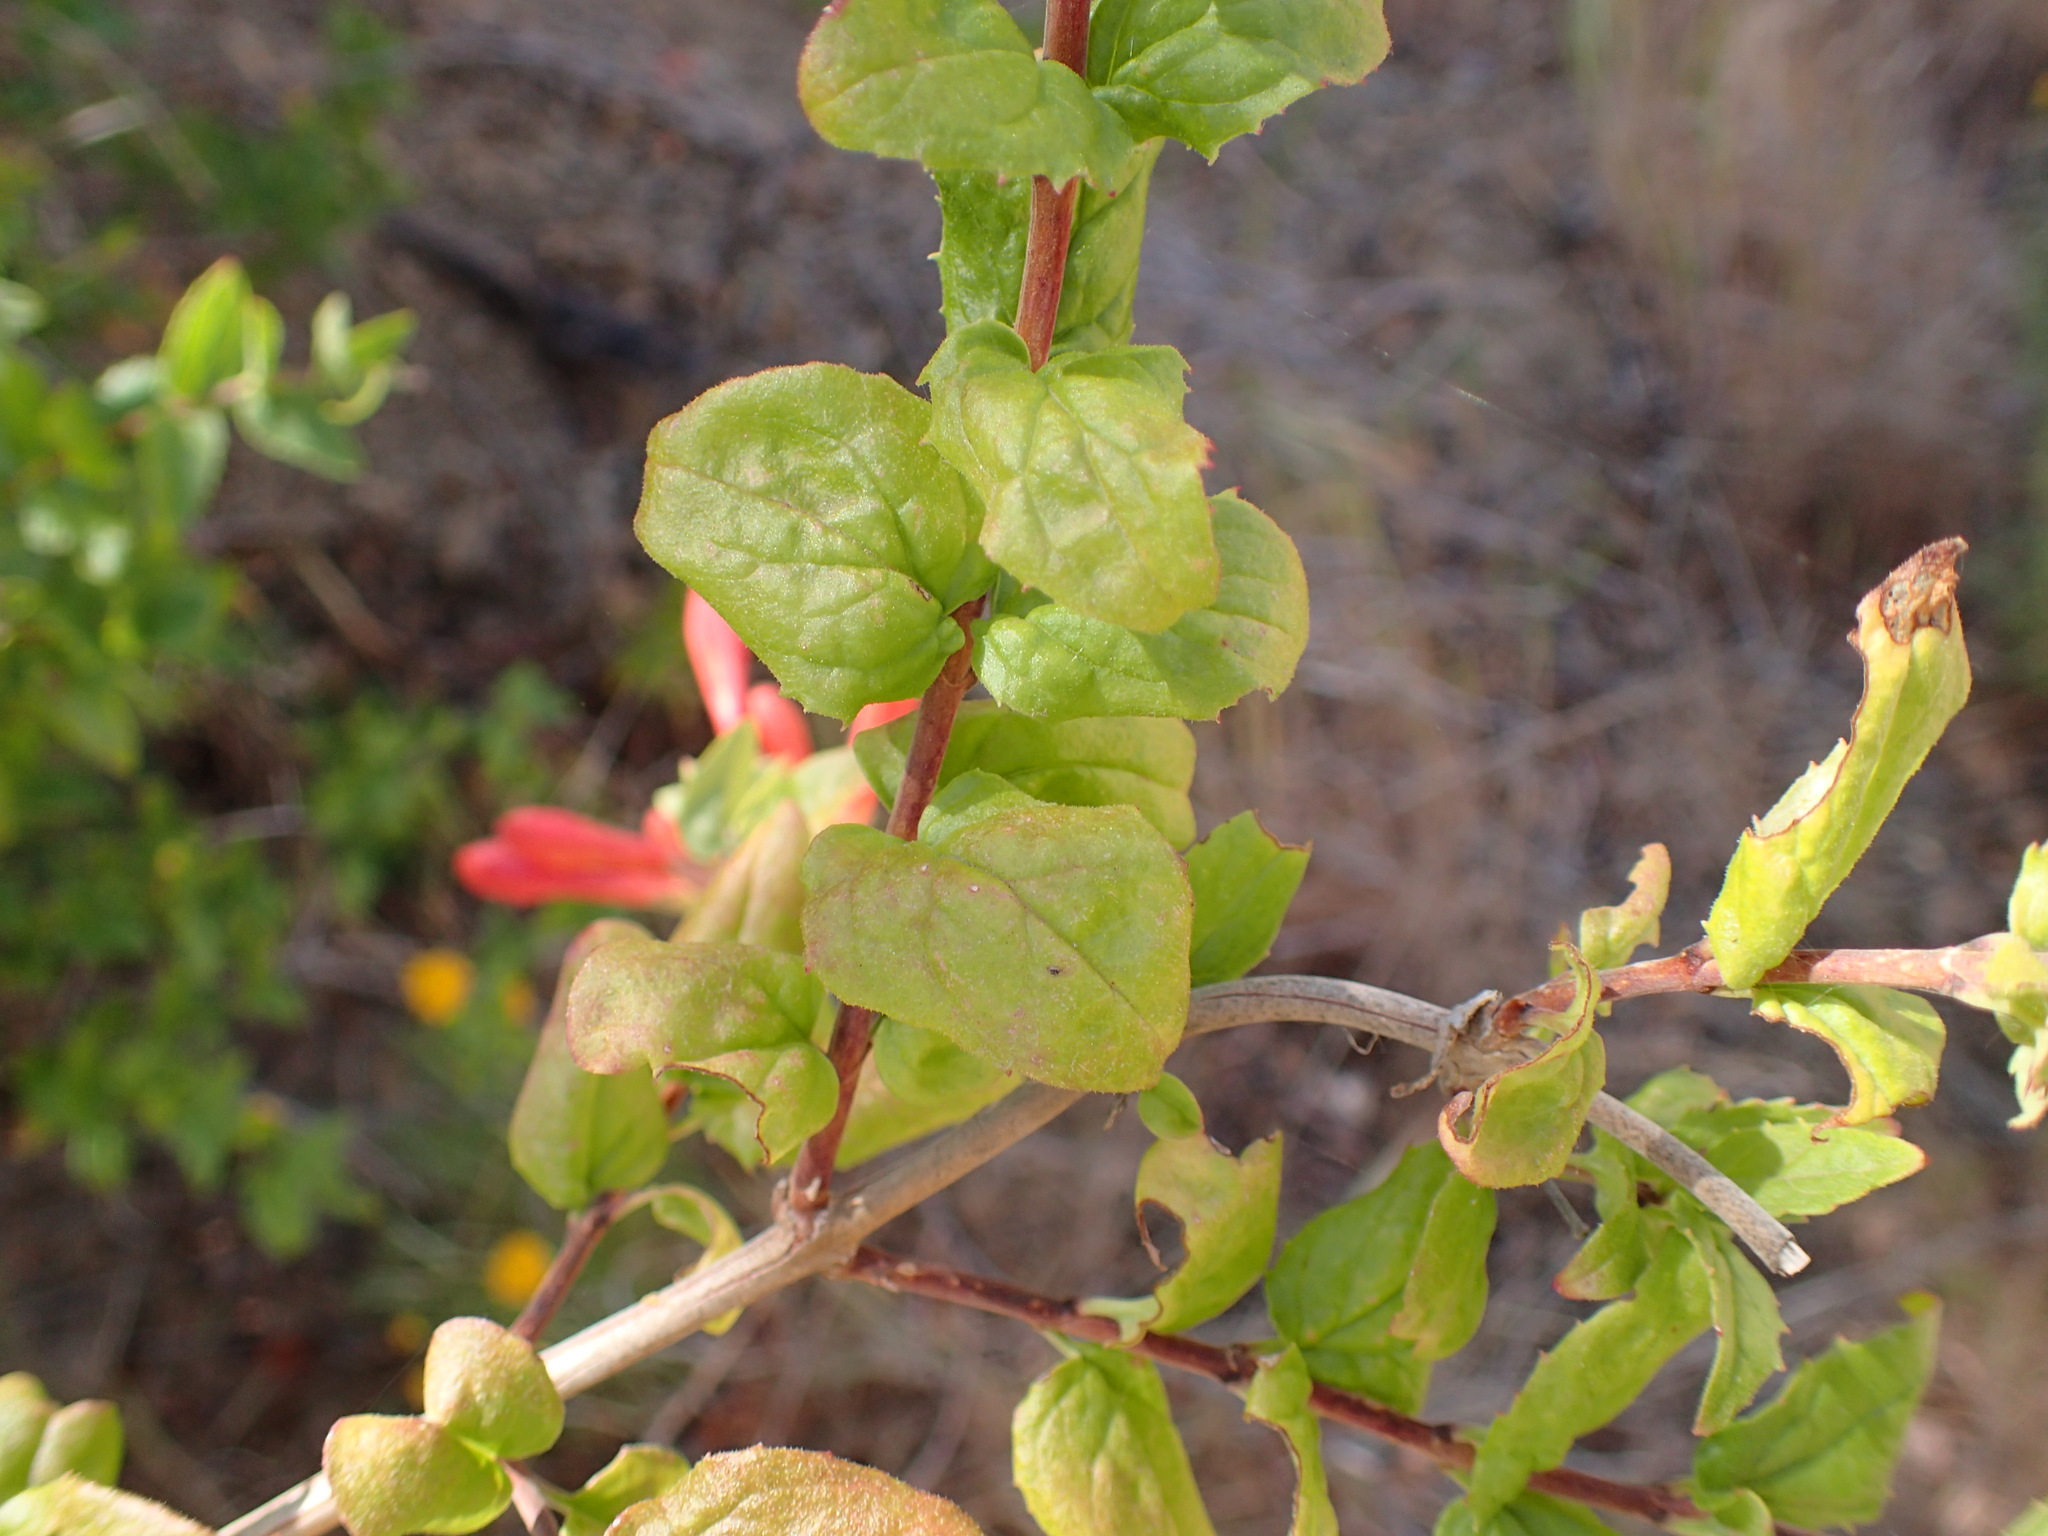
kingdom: Plantae
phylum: Tracheophyta
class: Magnoliopsida
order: Lamiales
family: Plantaginaceae
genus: Keckiella
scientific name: Keckiella cordifolia
